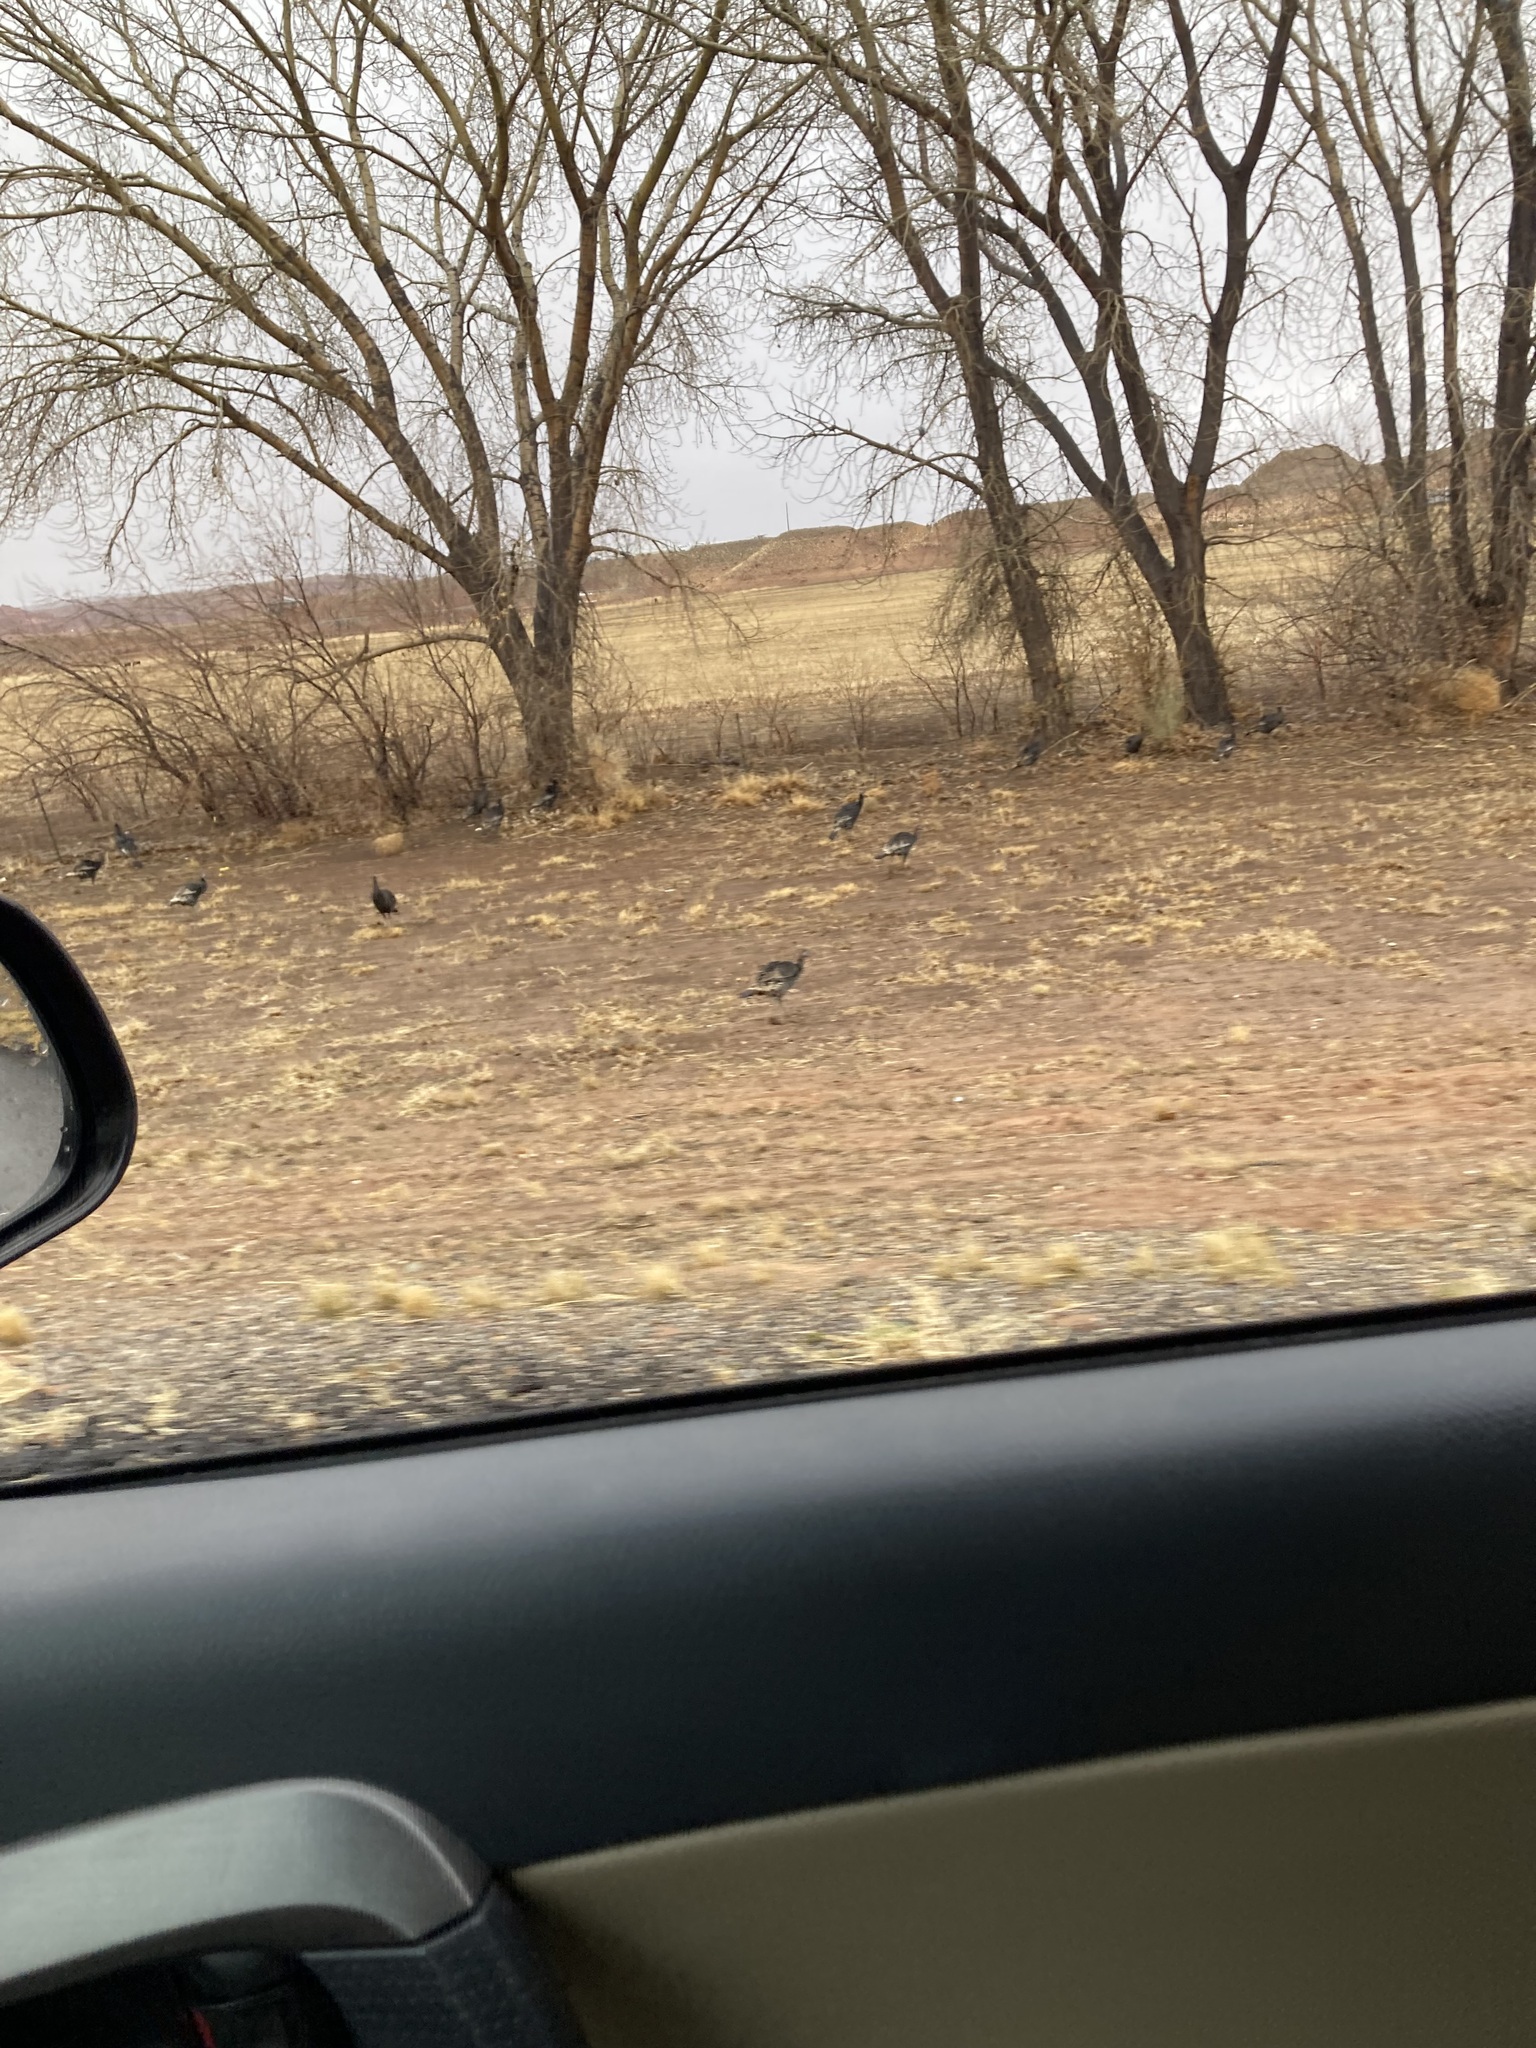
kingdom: Animalia
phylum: Chordata
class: Aves
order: Galliformes
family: Phasianidae
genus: Meleagris
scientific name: Meleagris gallopavo
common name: Wild turkey
